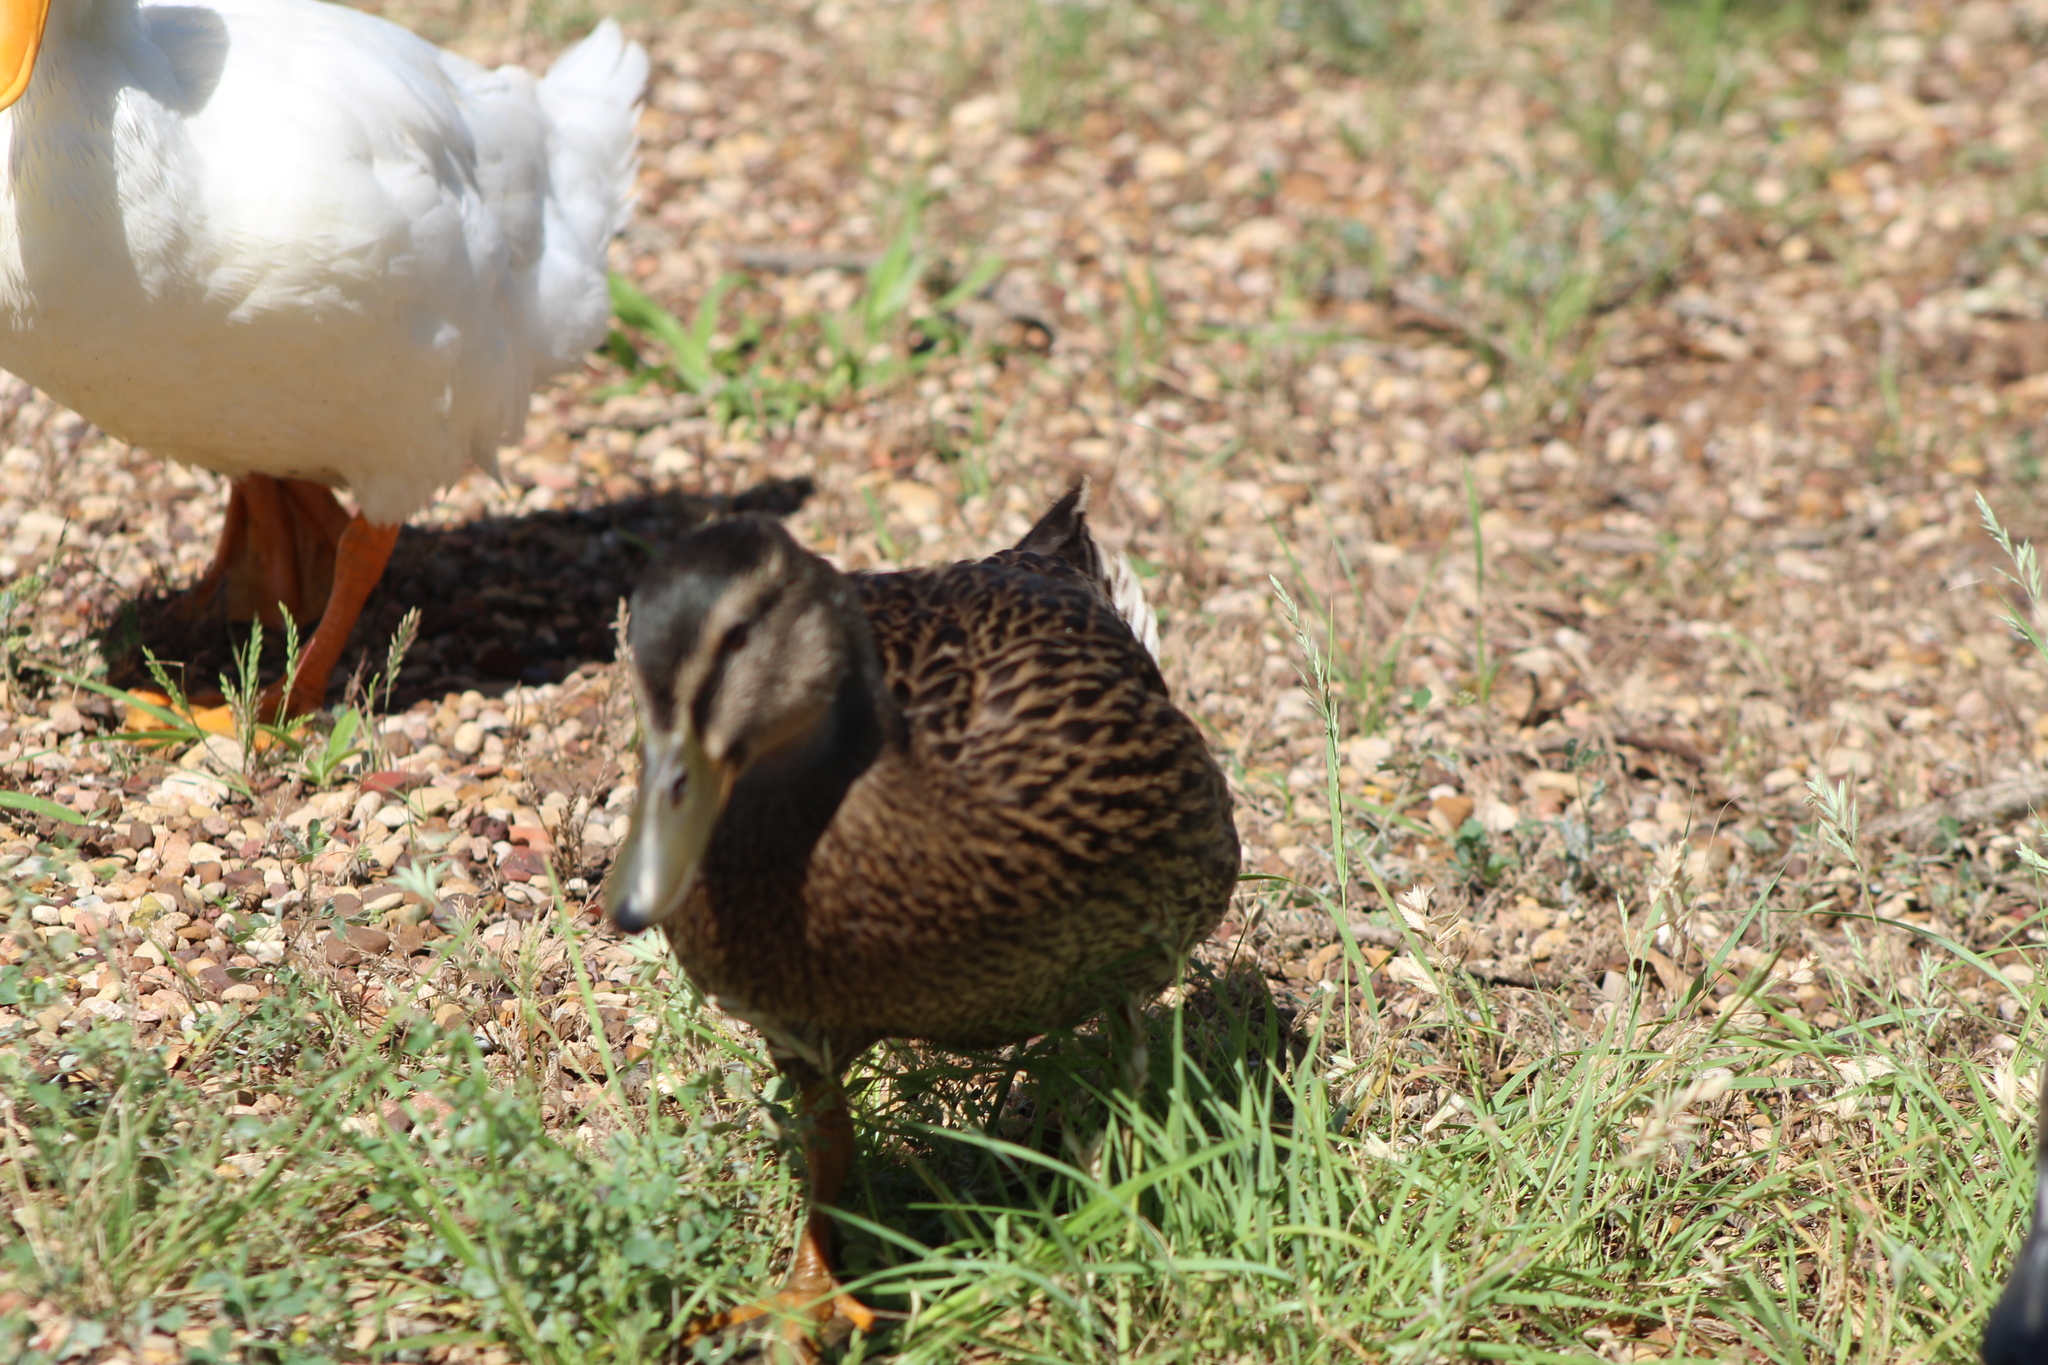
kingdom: Animalia
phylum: Chordata
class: Aves
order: Anseriformes
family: Anatidae
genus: Anas
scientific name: Anas platyrhynchos
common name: Mallard
